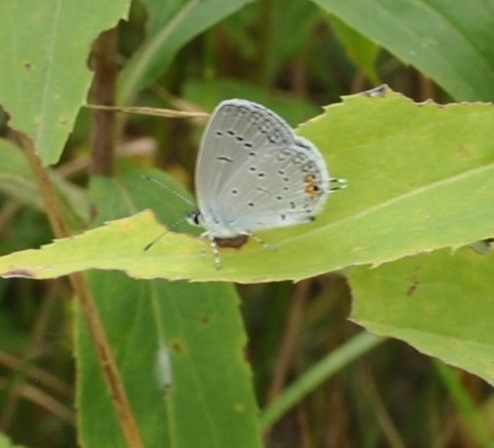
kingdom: Animalia
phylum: Arthropoda
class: Insecta
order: Lepidoptera
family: Lycaenidae
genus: Elkalyce
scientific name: Elkalyce comyntas
